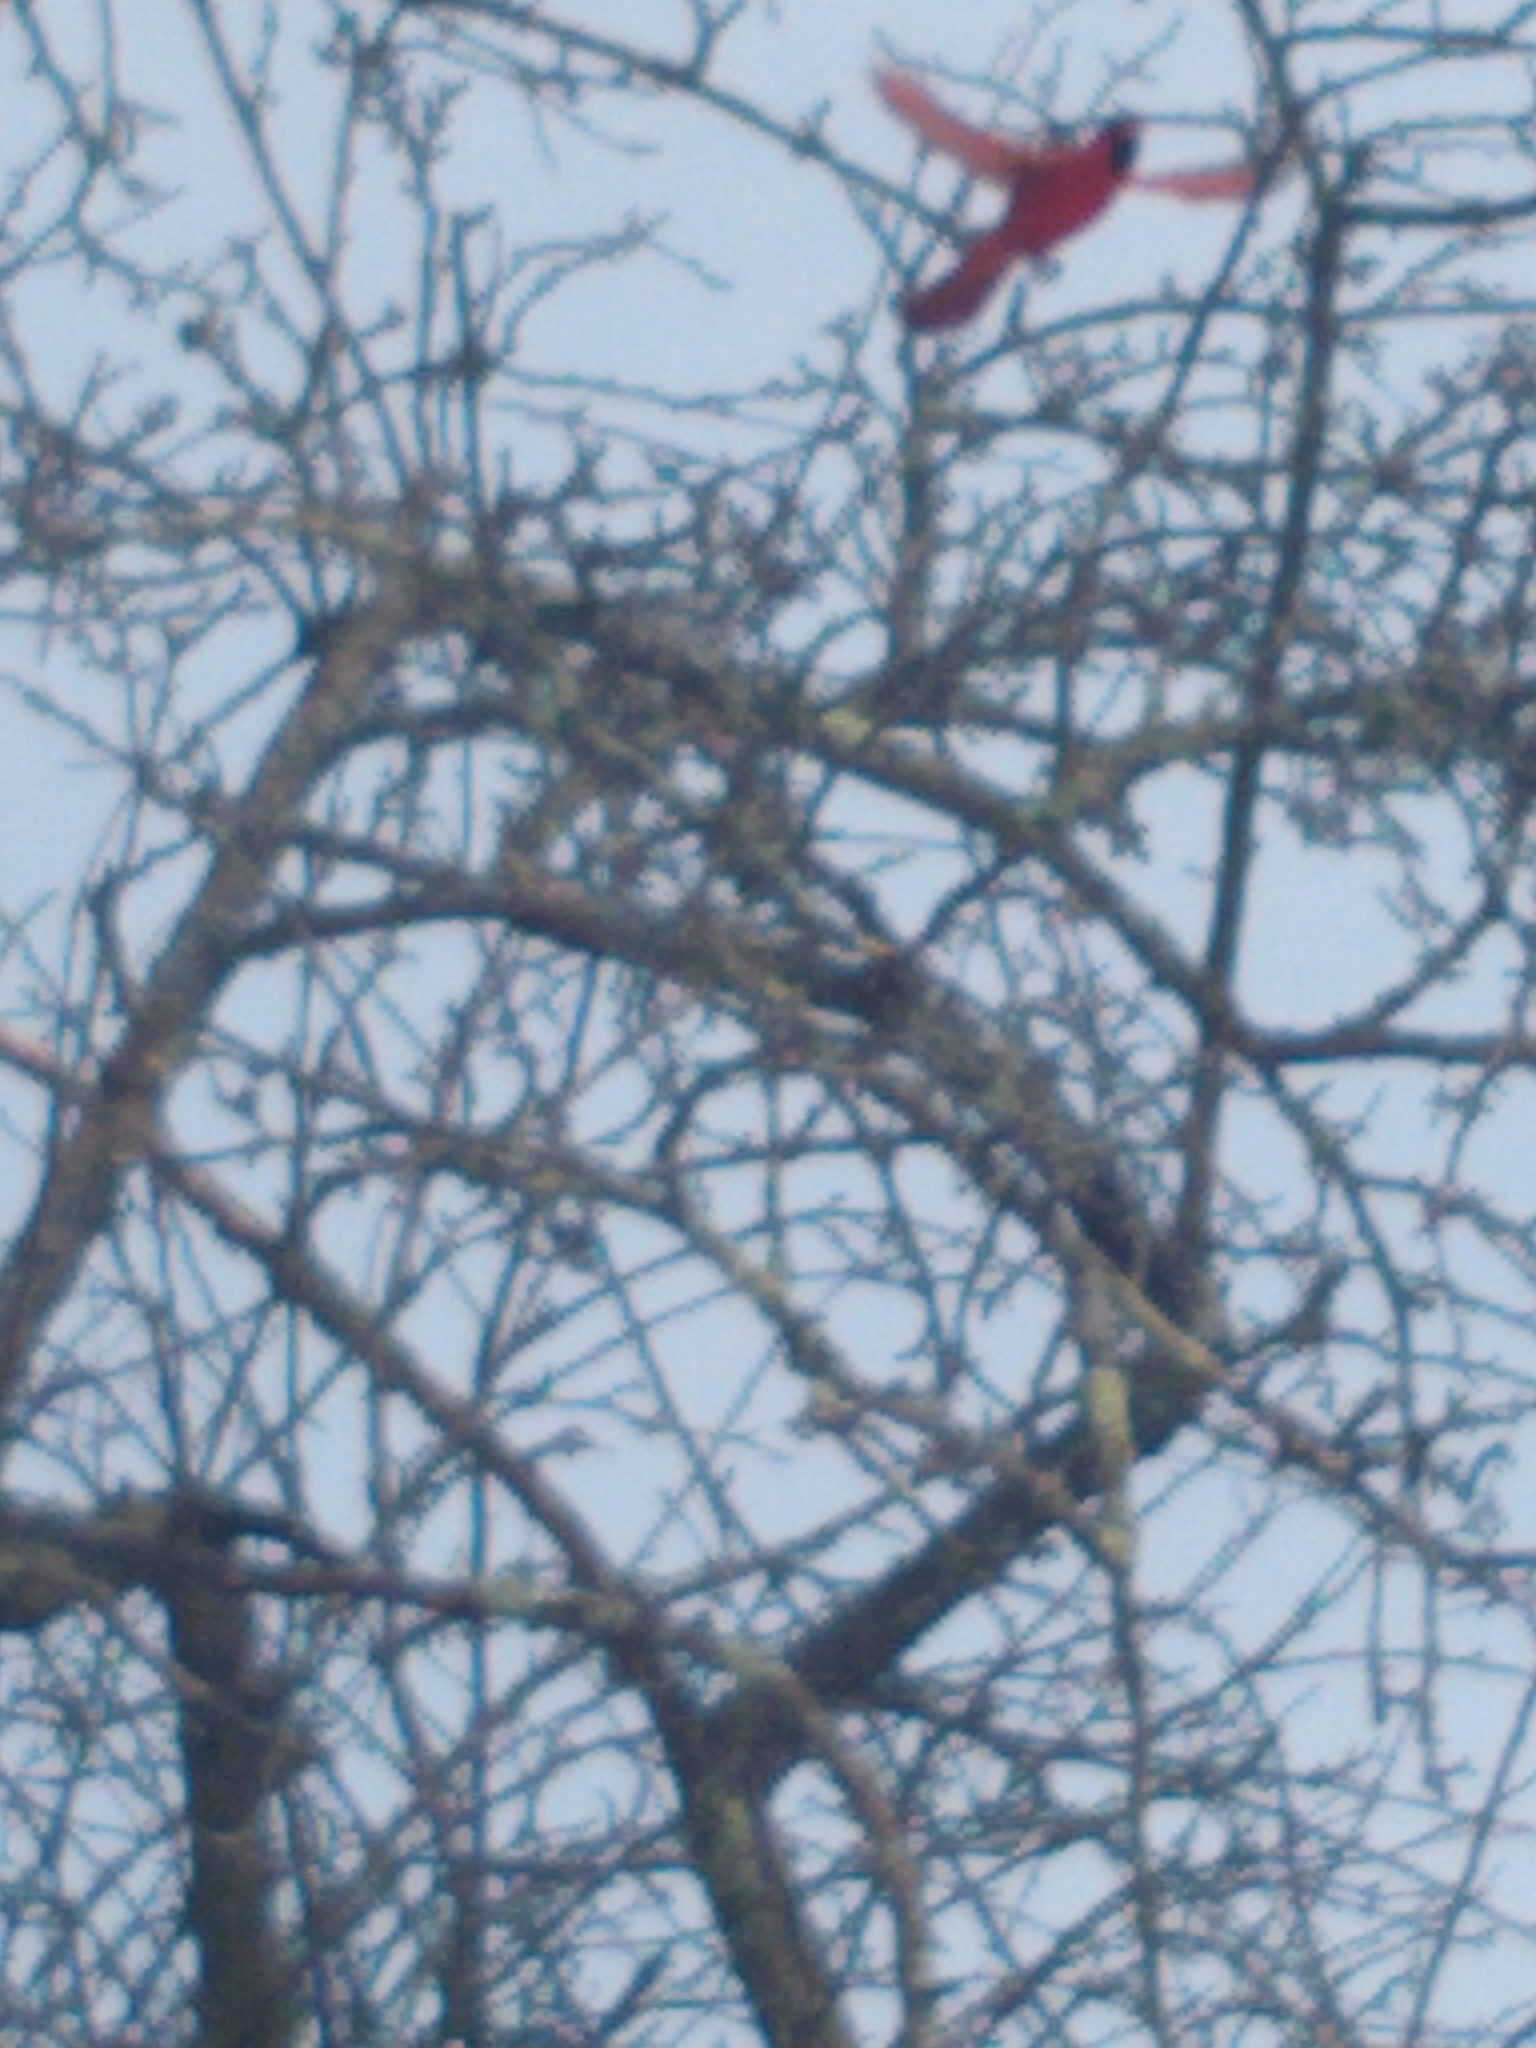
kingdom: Animalia
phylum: Chordata
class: Aves
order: Passeriformes
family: Cardinalidae
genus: Cardinalis
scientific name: Cardinalis cardinalis
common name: Northern cardinal
